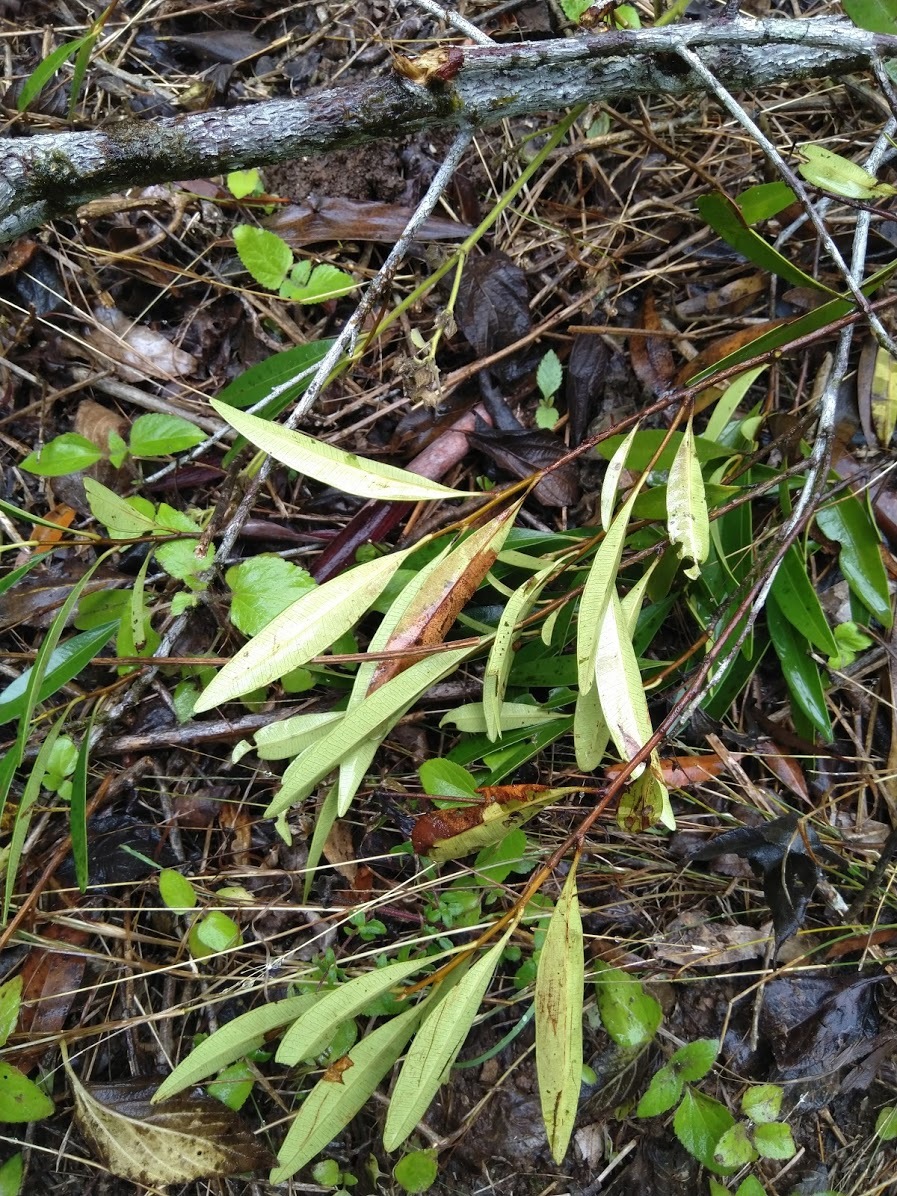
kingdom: Plantae
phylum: Tracheophyta
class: Magnoliopsida
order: Sapindales
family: Simaroubaceae
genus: Samadera
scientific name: Samadera bidwillii
